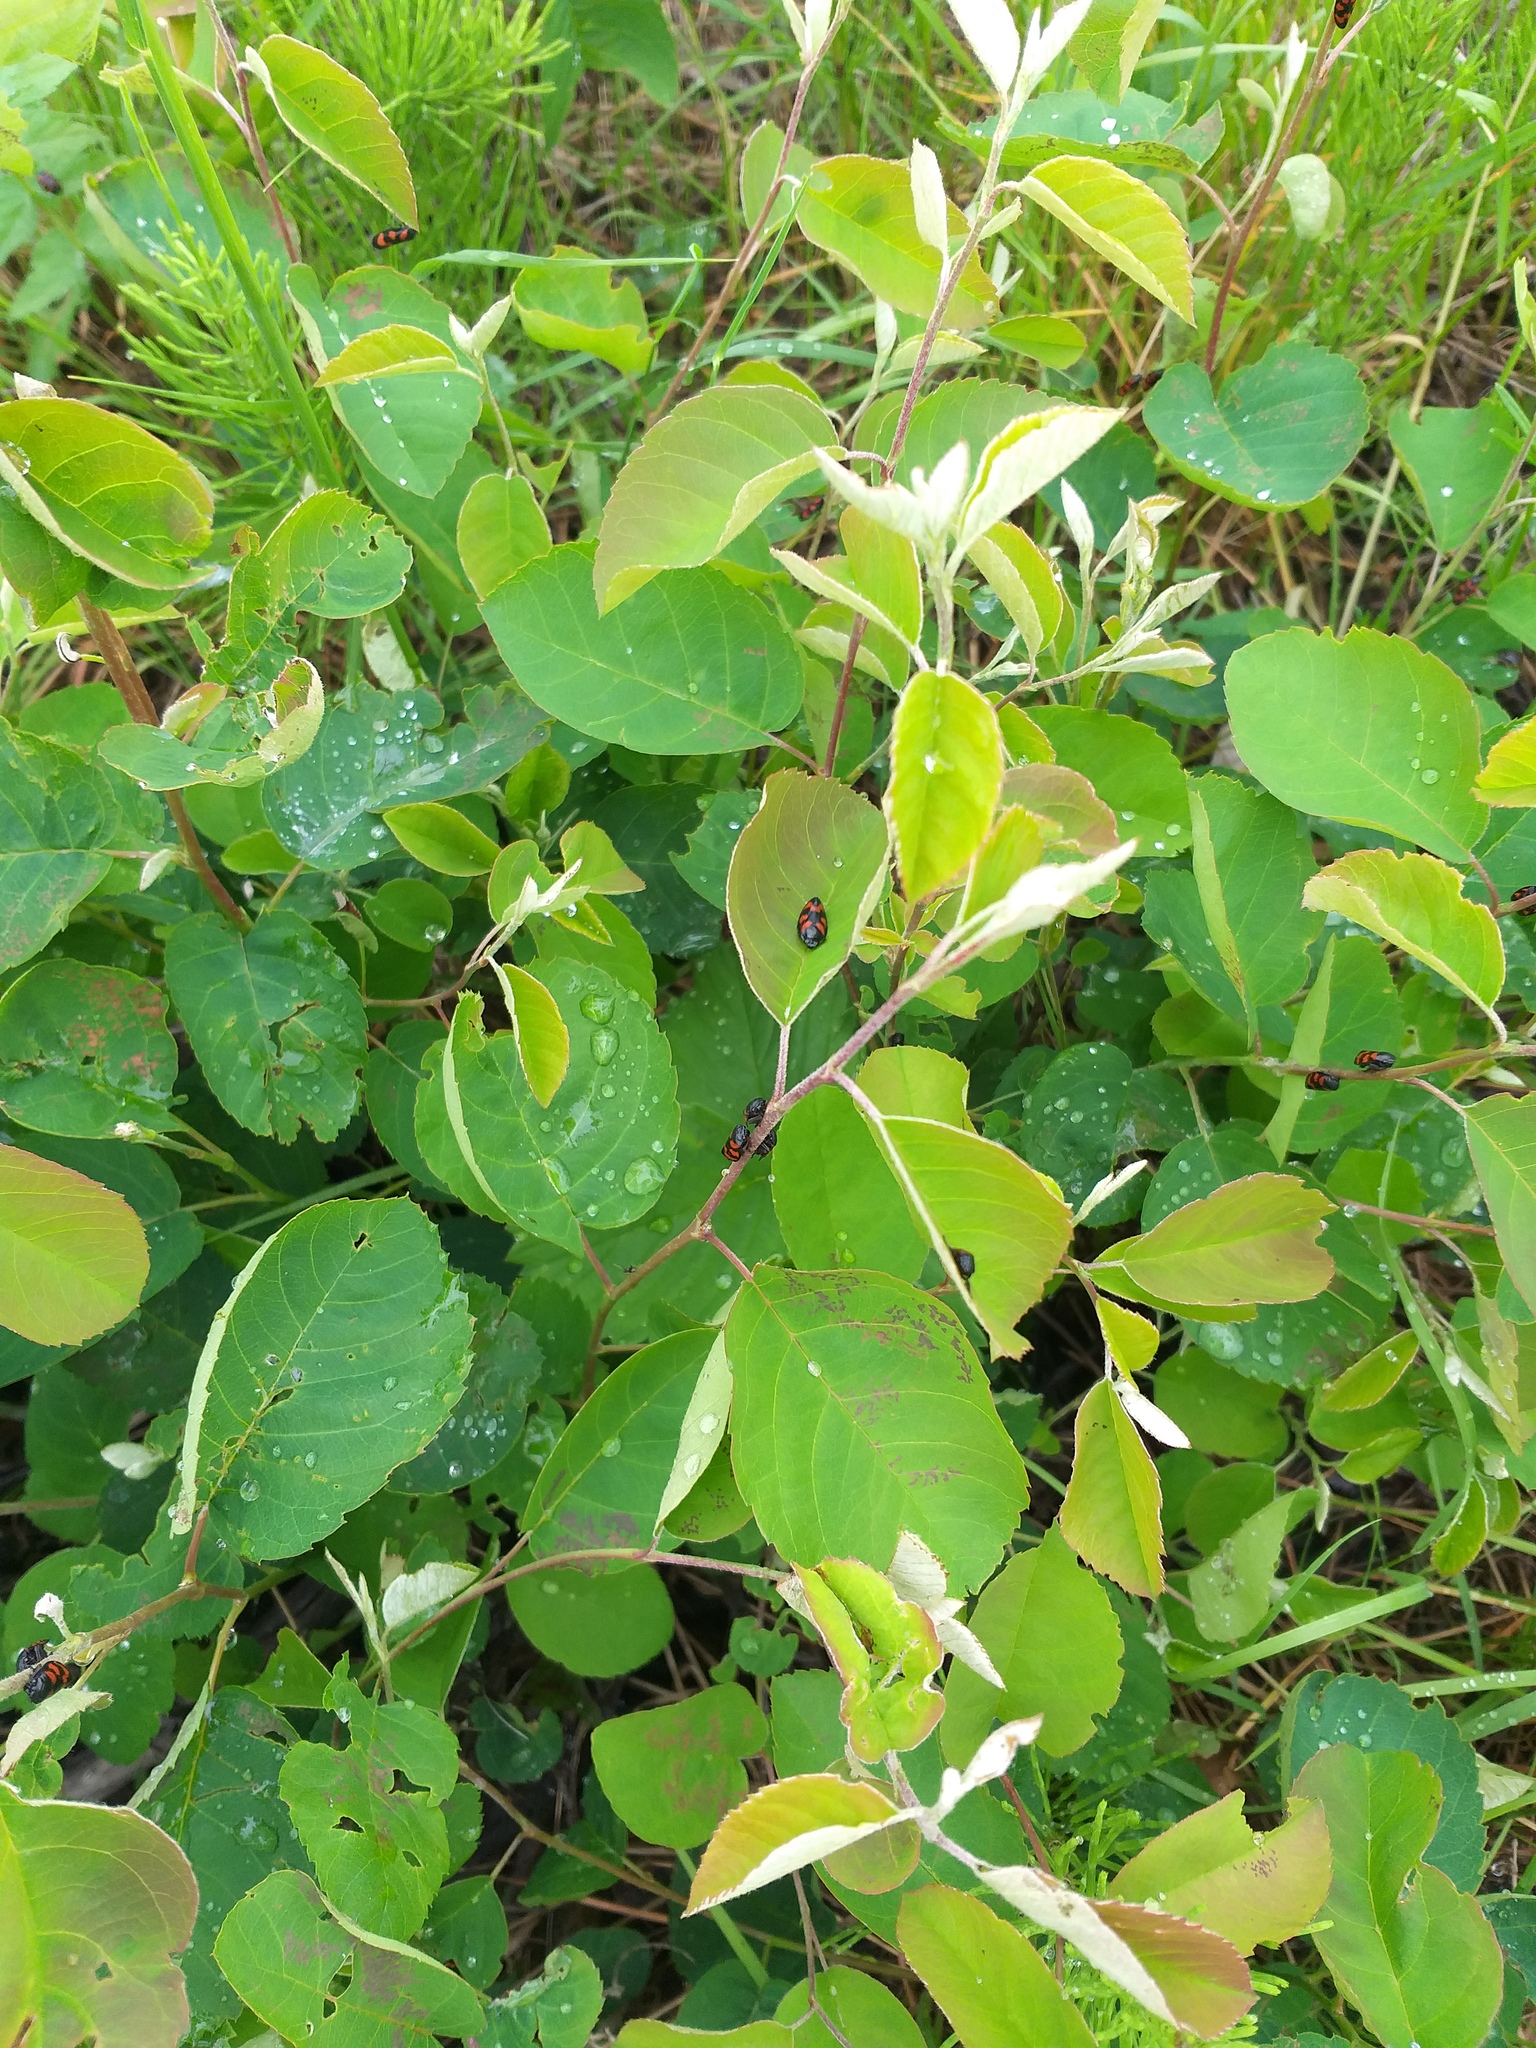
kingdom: Plantae
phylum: Tracheophyta
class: Magnoliopsida
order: Rosales
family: Rosaceae
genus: Amelanchier
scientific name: Amelanchier
